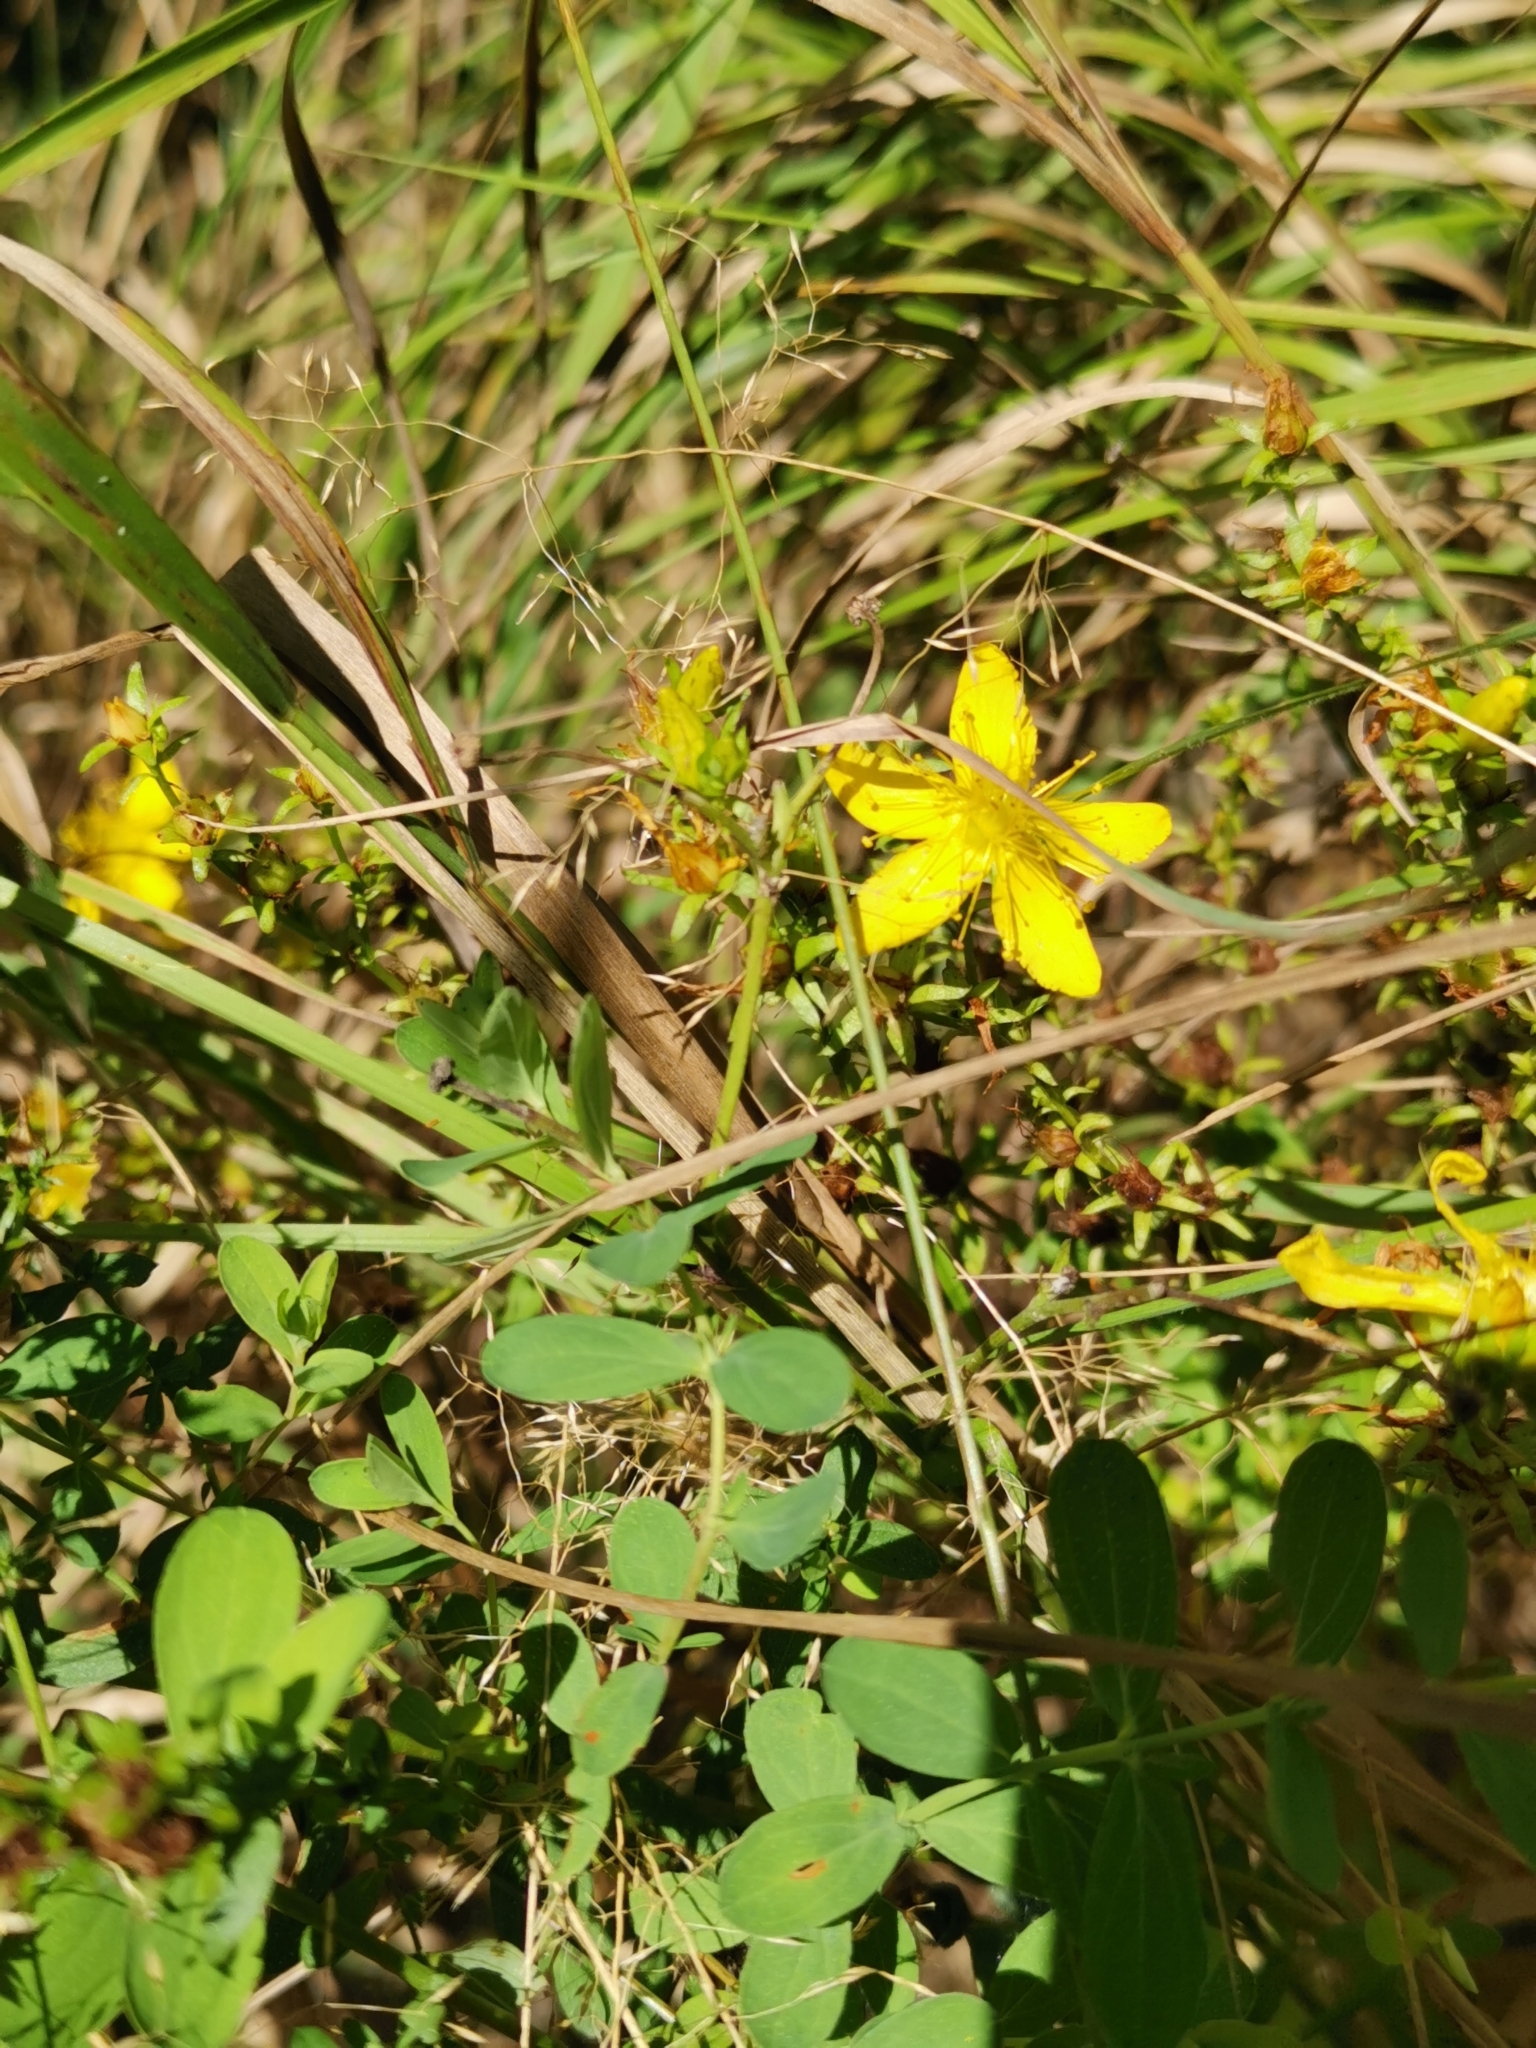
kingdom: Plantae
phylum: Tracheophyta
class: Magnoliopsida
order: Malpighiales
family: Hypericaceae
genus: Hypericum
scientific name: Hypericum perforatum
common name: Common st. johnswort
